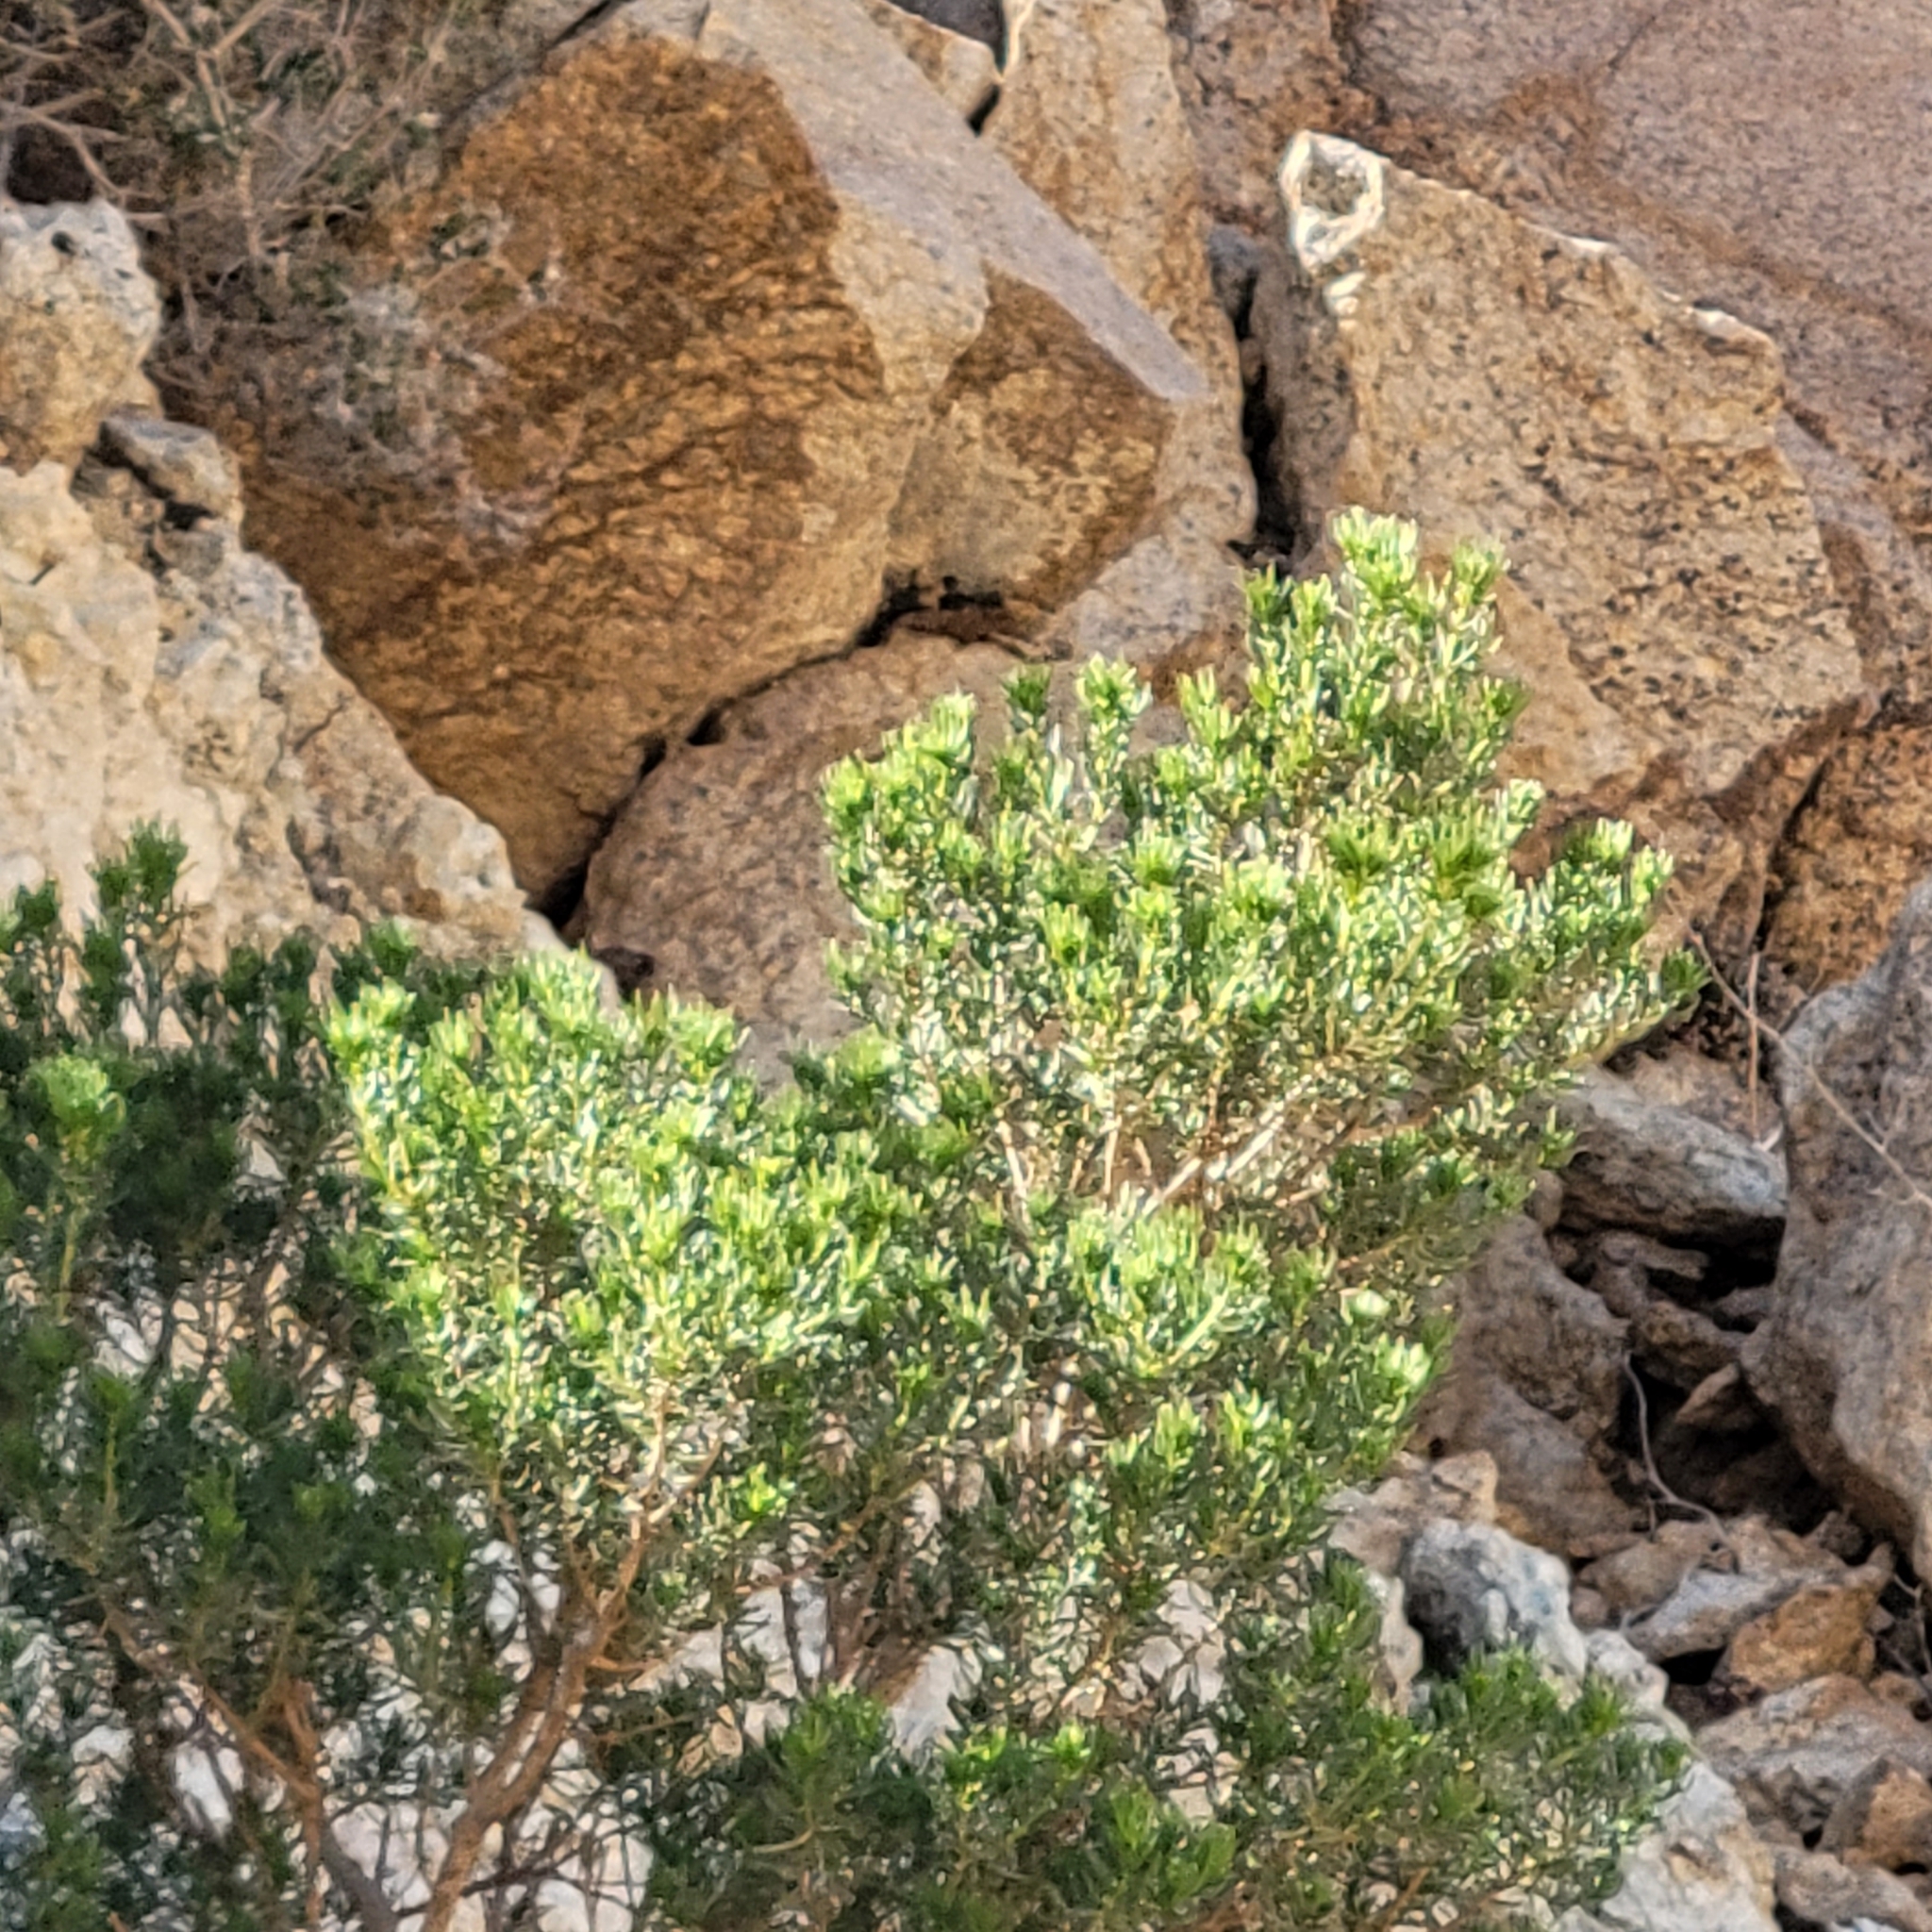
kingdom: Plantae
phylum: Tracheophyta
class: Magnoliopsida
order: Asterales
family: Asteraceae
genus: Peucephyllum
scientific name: Peucephyllum schottii
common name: Pygmy-cedar
